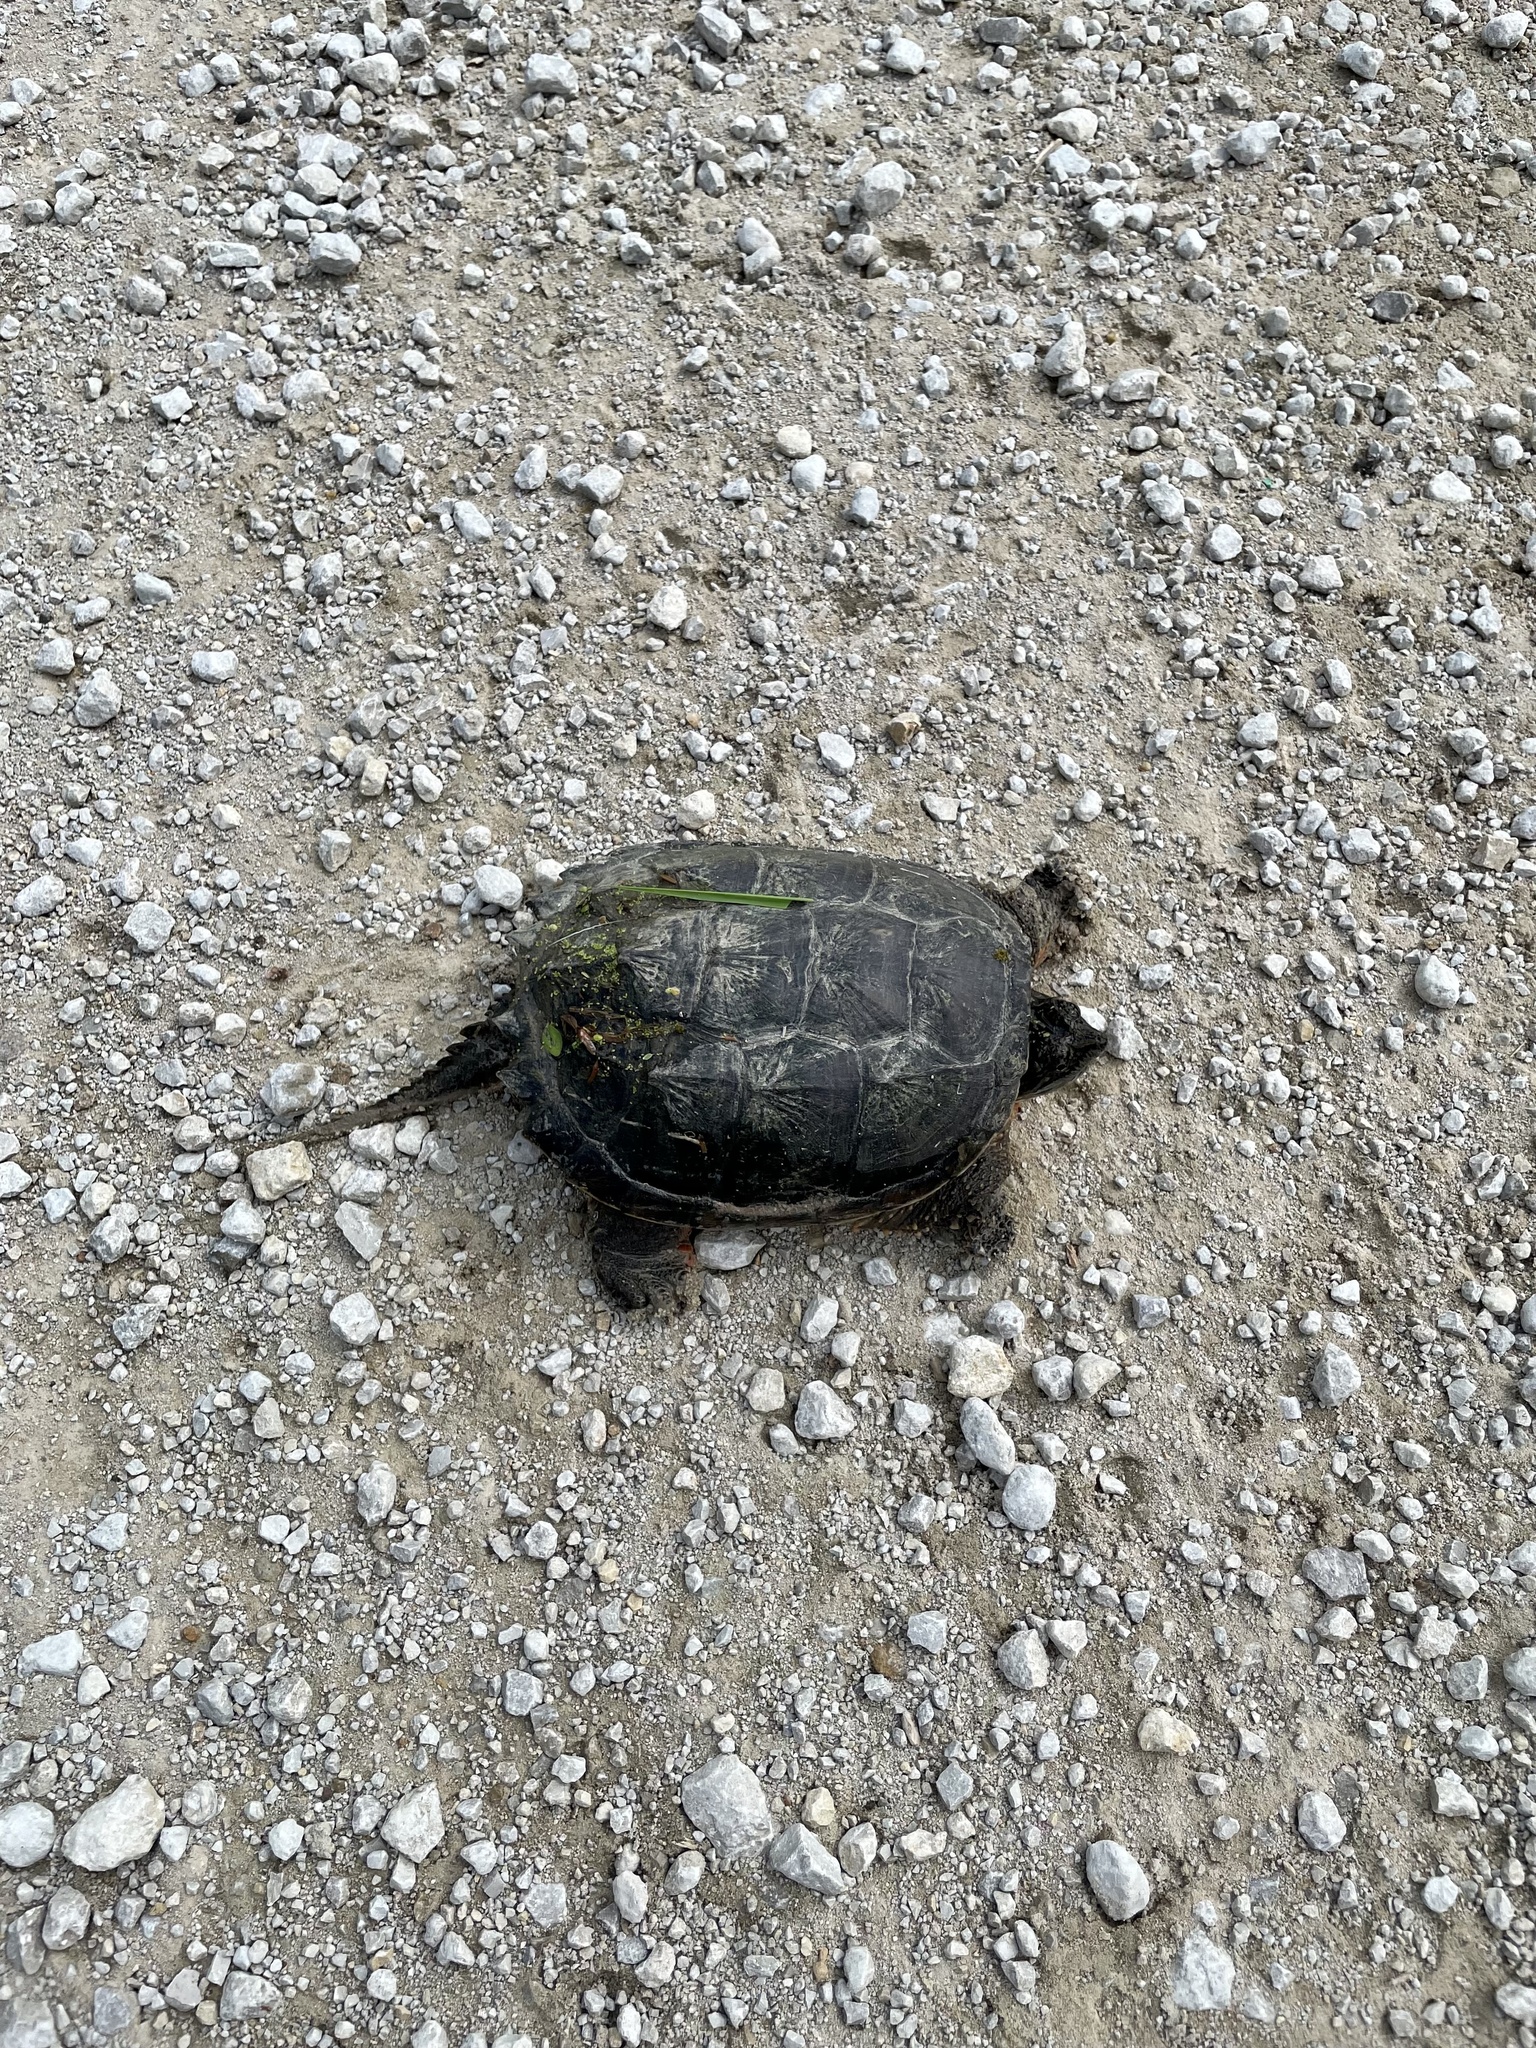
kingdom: Animalia
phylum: Chordata
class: Testudines
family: Chelydridae
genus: Chelydra
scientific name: Chelydra serpentina
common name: Common snapping turtle
